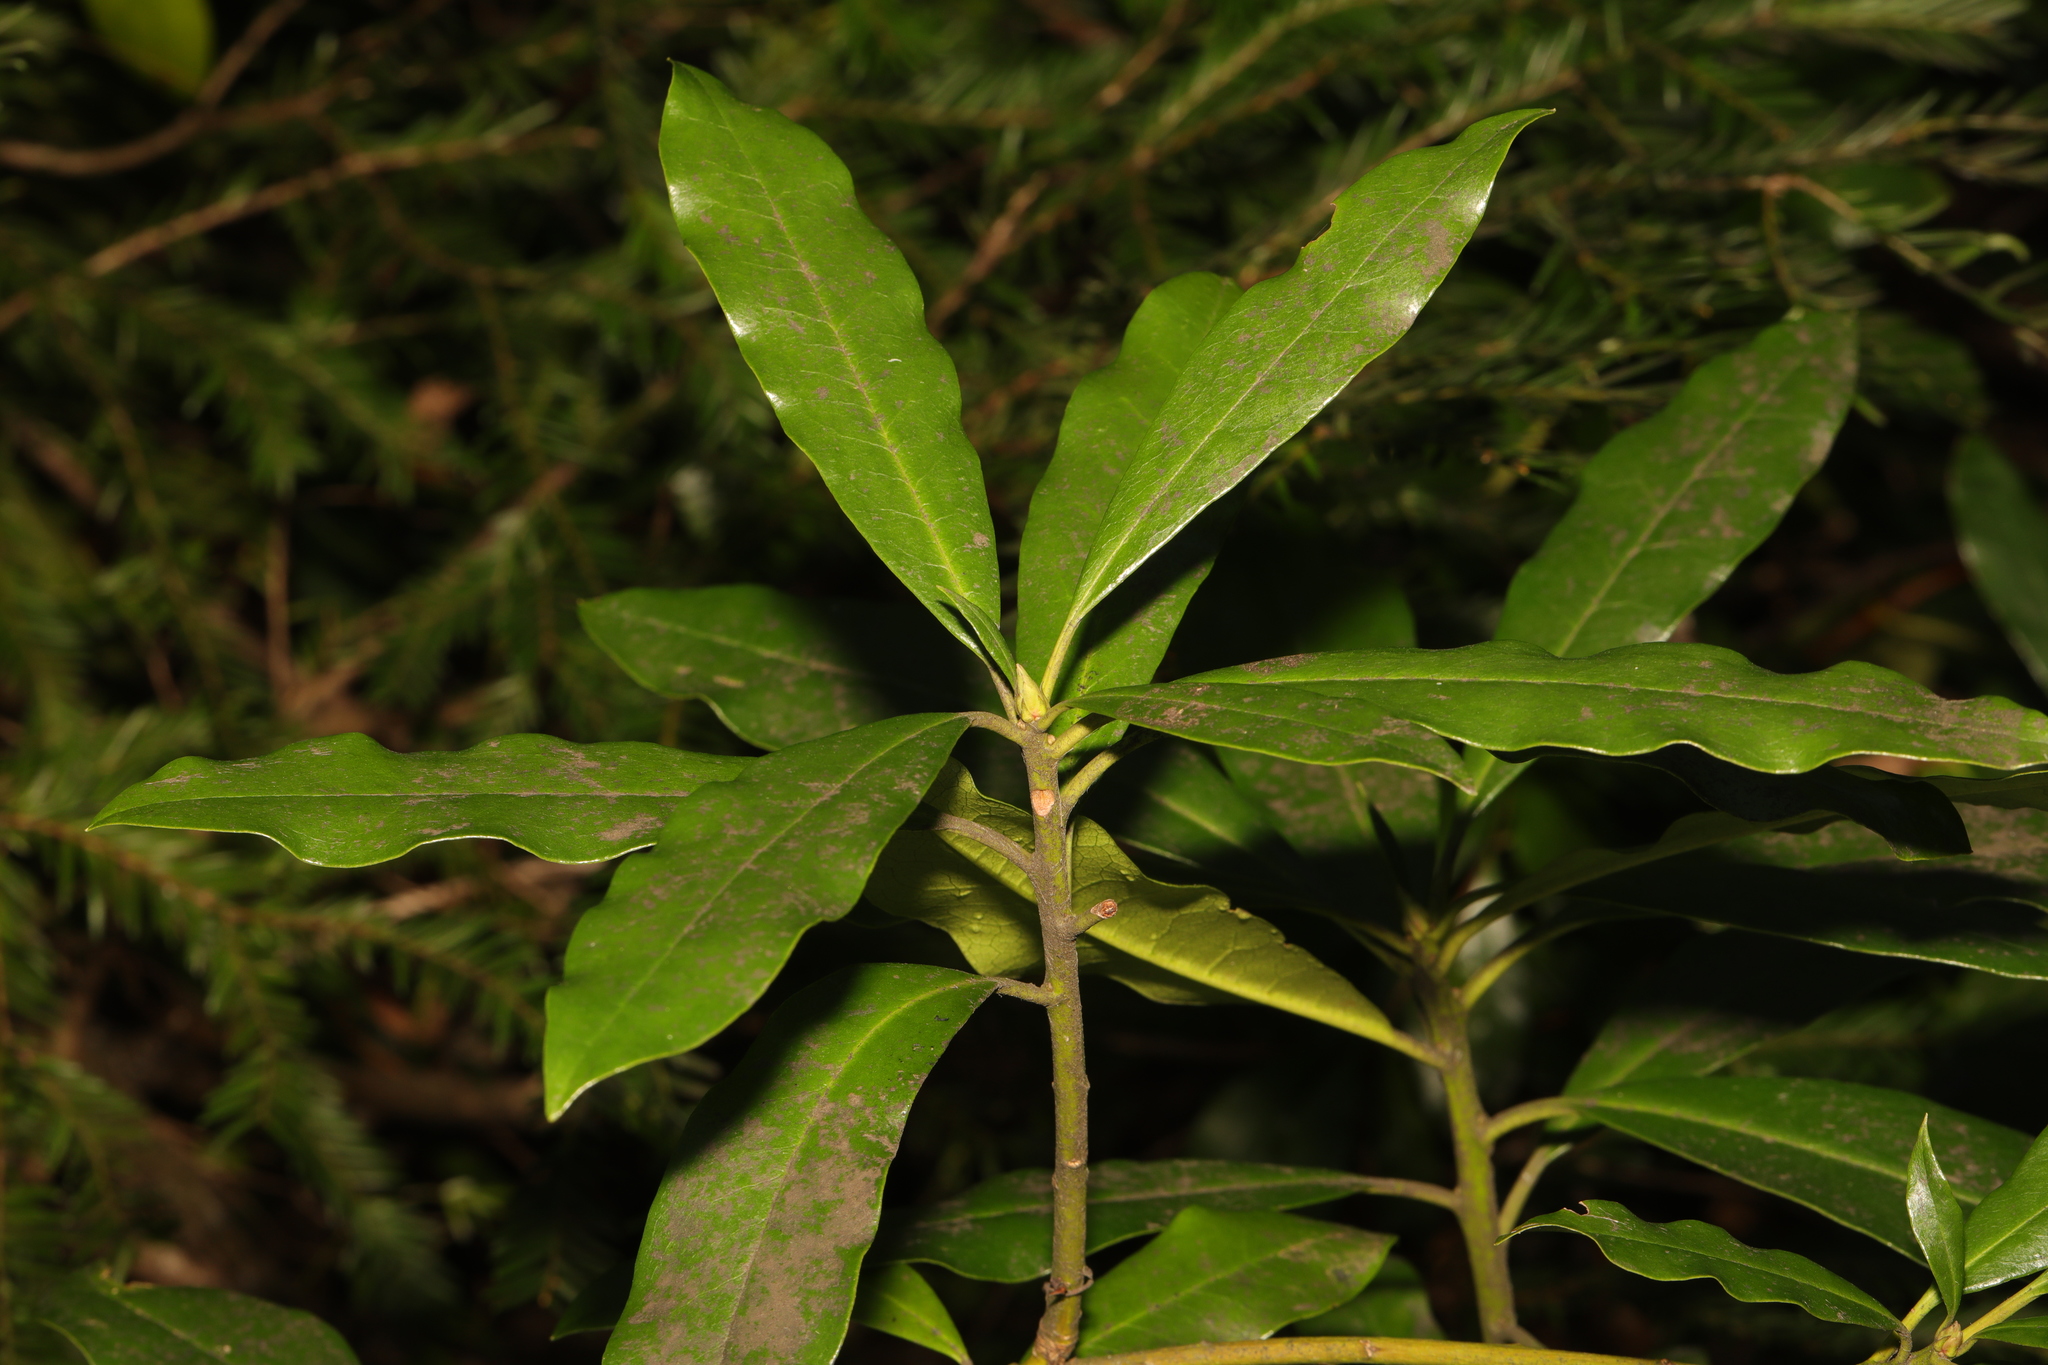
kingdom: Plantae
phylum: Tracheophyta
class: Magnoliopsida
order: Ericales
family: Ericaceae
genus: Rhododendron
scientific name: Rhododendron ponticum
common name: Rhododendron
